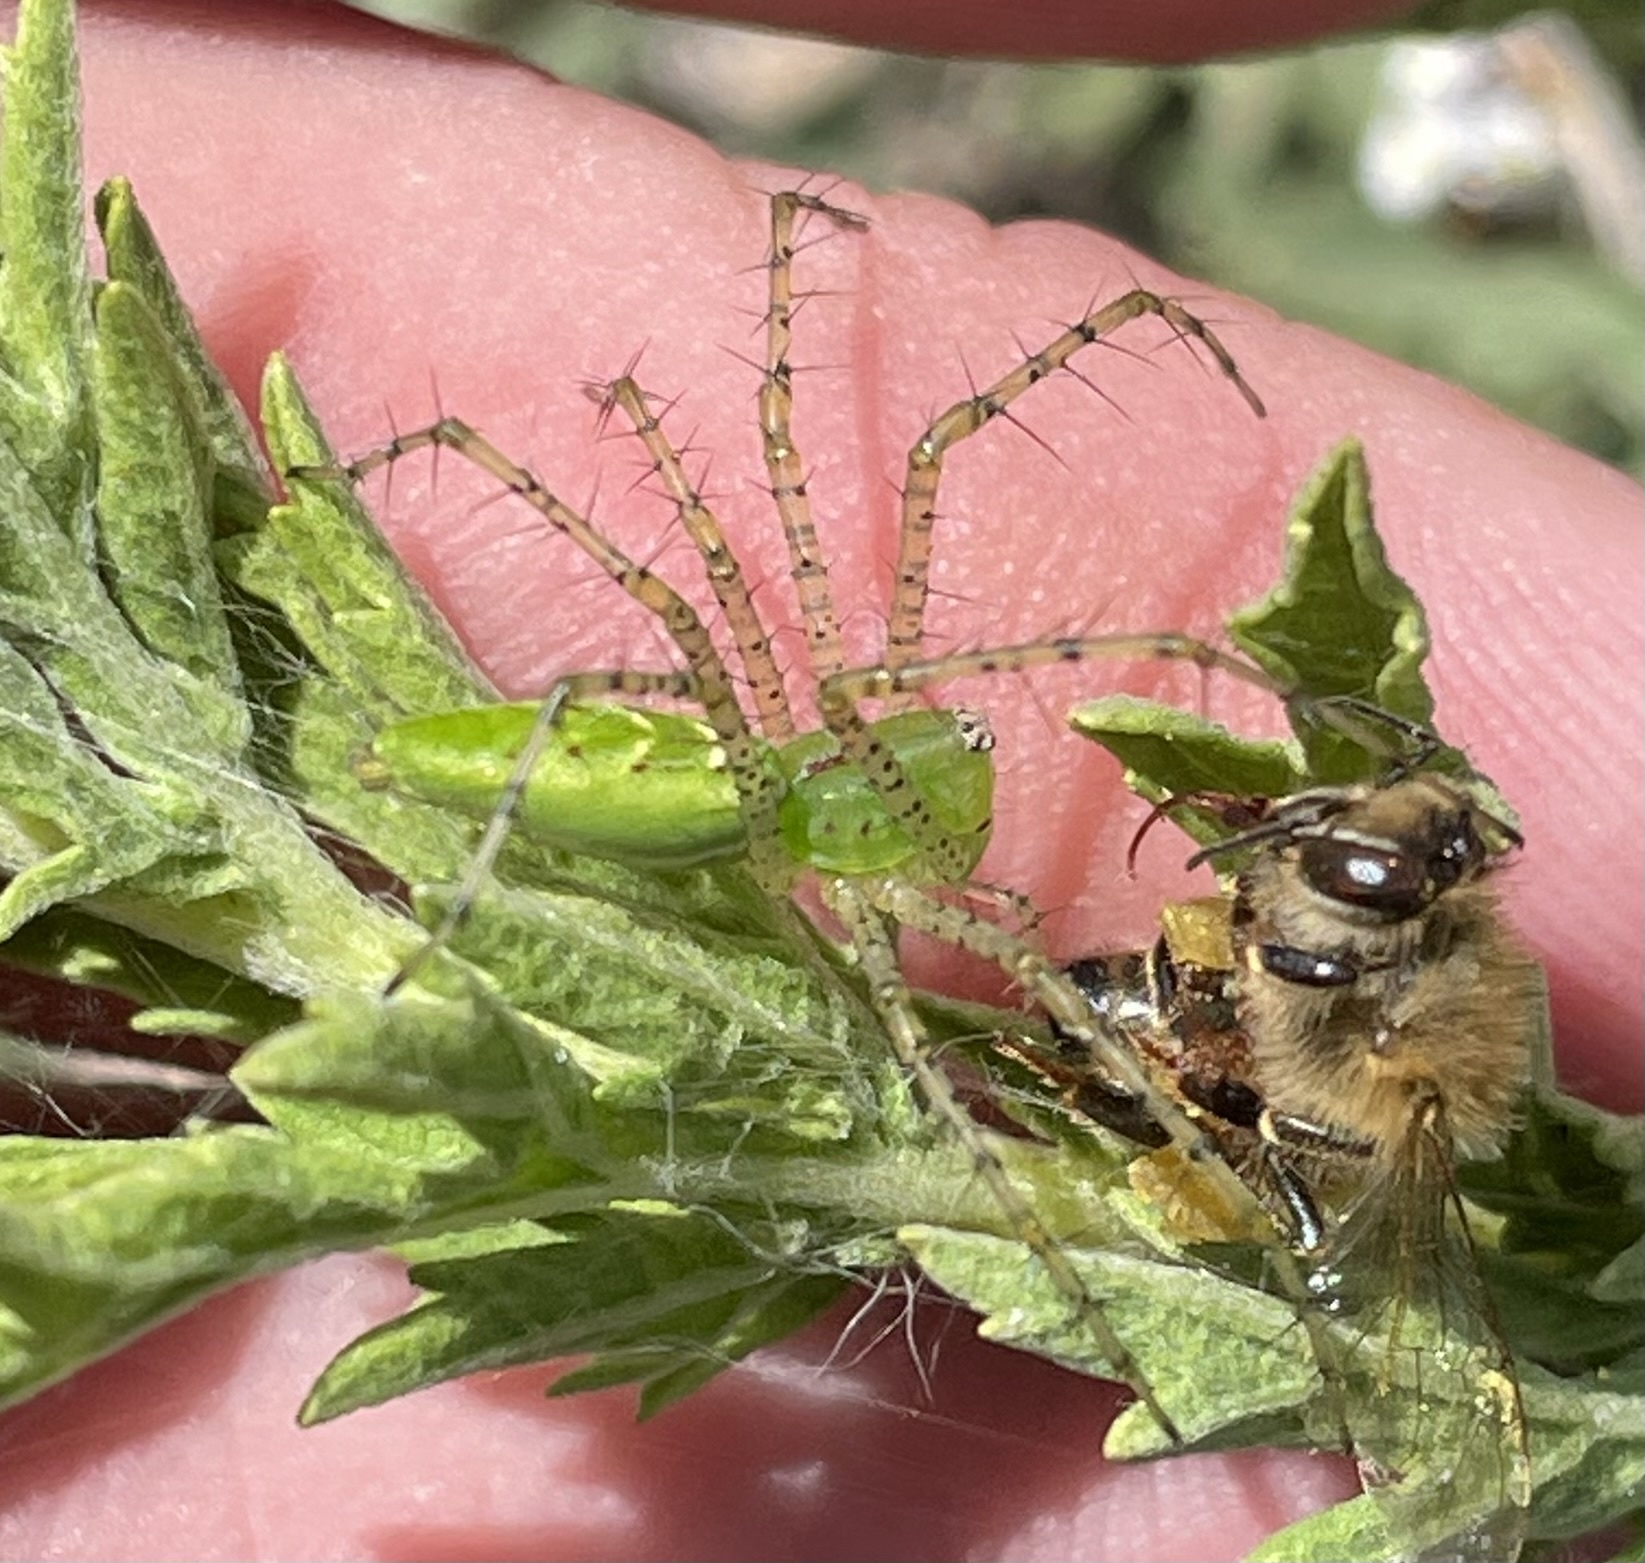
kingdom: Animalia
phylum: Arthropoda
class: Arachnida
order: Araneae
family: Oxyopidae
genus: Peucetia
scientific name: Peucetia viridans
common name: Lynx spiders
